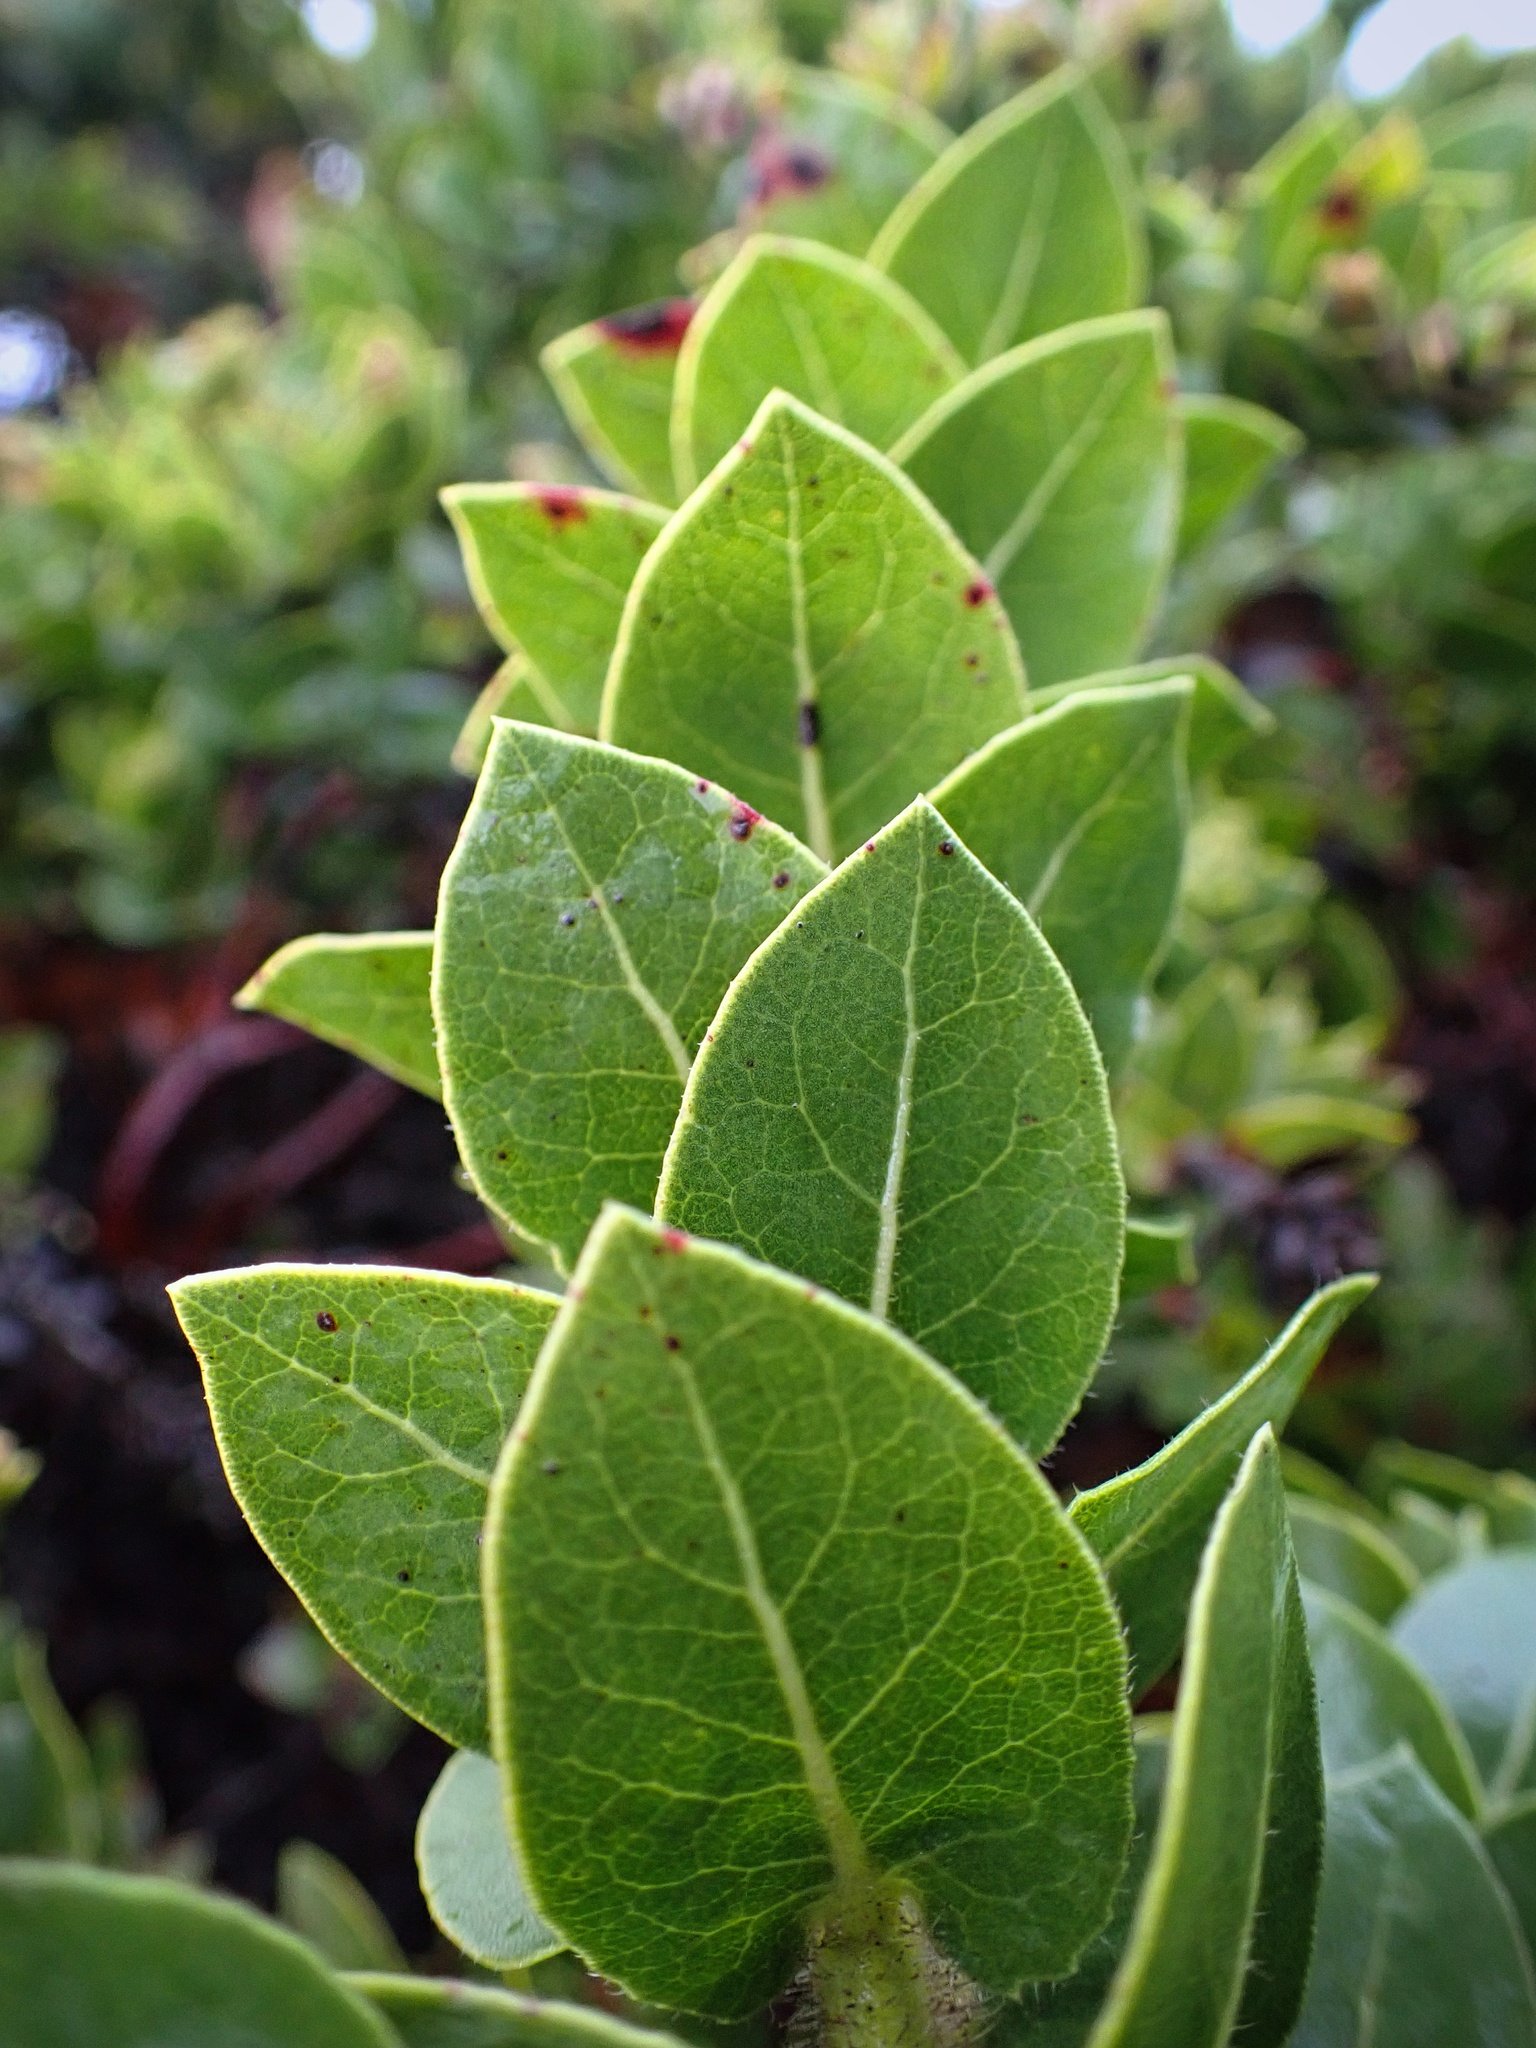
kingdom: Plantae
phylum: Tracheophyta
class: Magnoliopsida
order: Ericales
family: Ericaceae
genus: Arctostaphylos
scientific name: Arctostaphylos imbricata
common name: San bruno mountain manzanita
